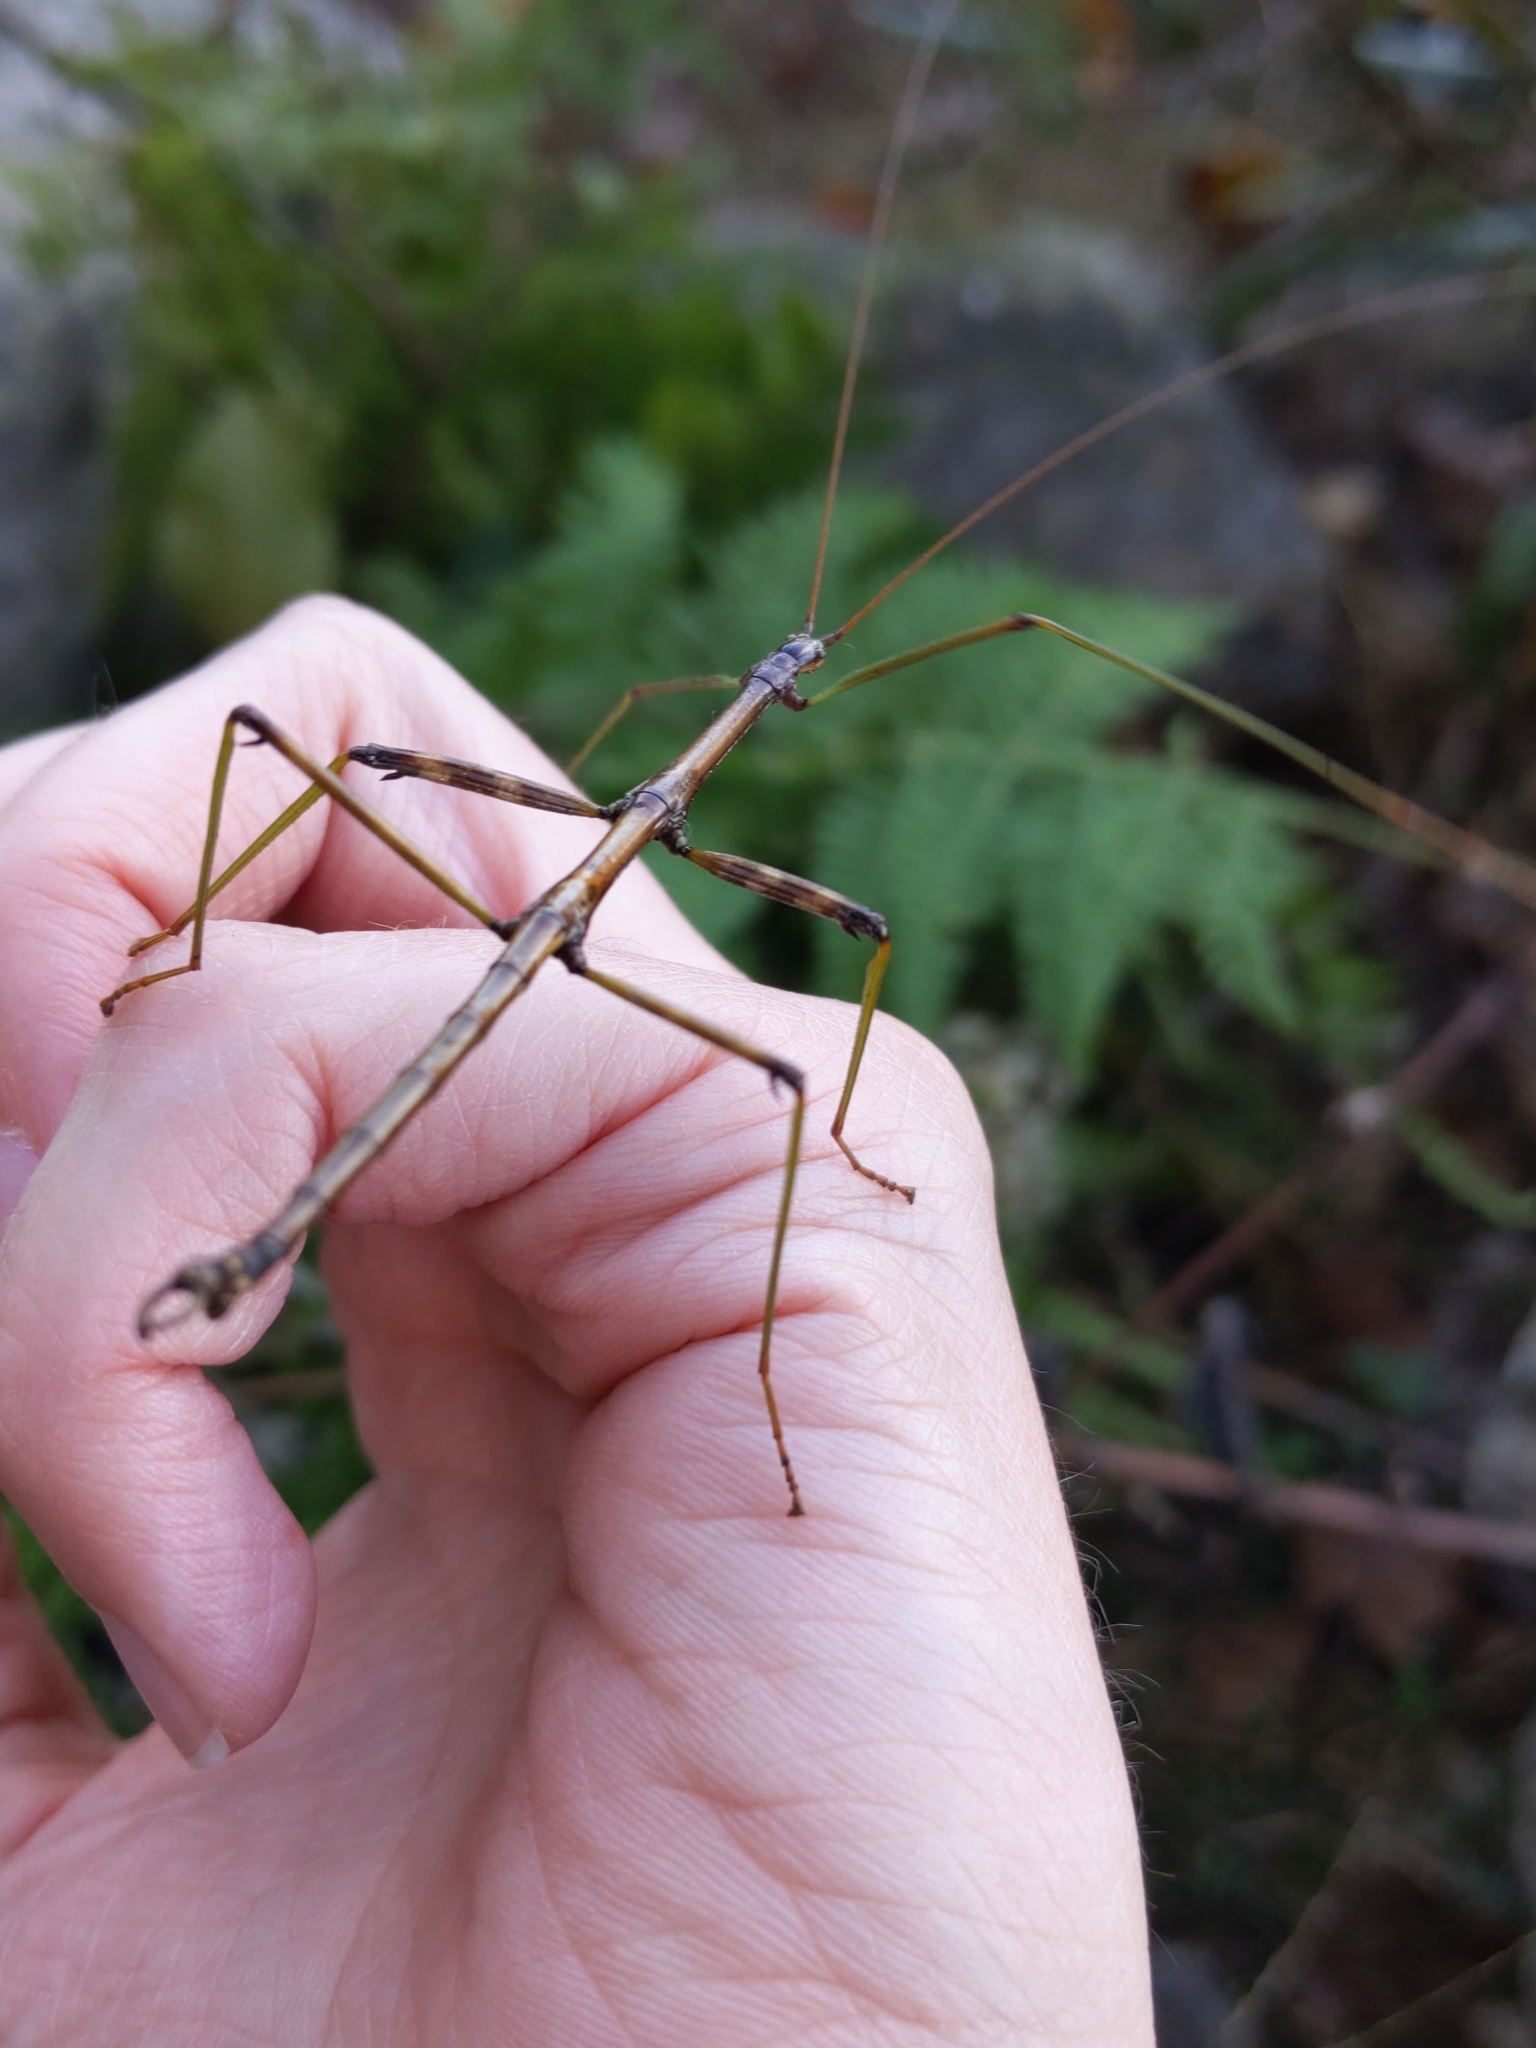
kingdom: Animalia
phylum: Arthropoda
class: Insecta
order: Phasmida
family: Diapheromeridae
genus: Diapheromera
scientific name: Diapheromera femorata
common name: Common american walkingstick
